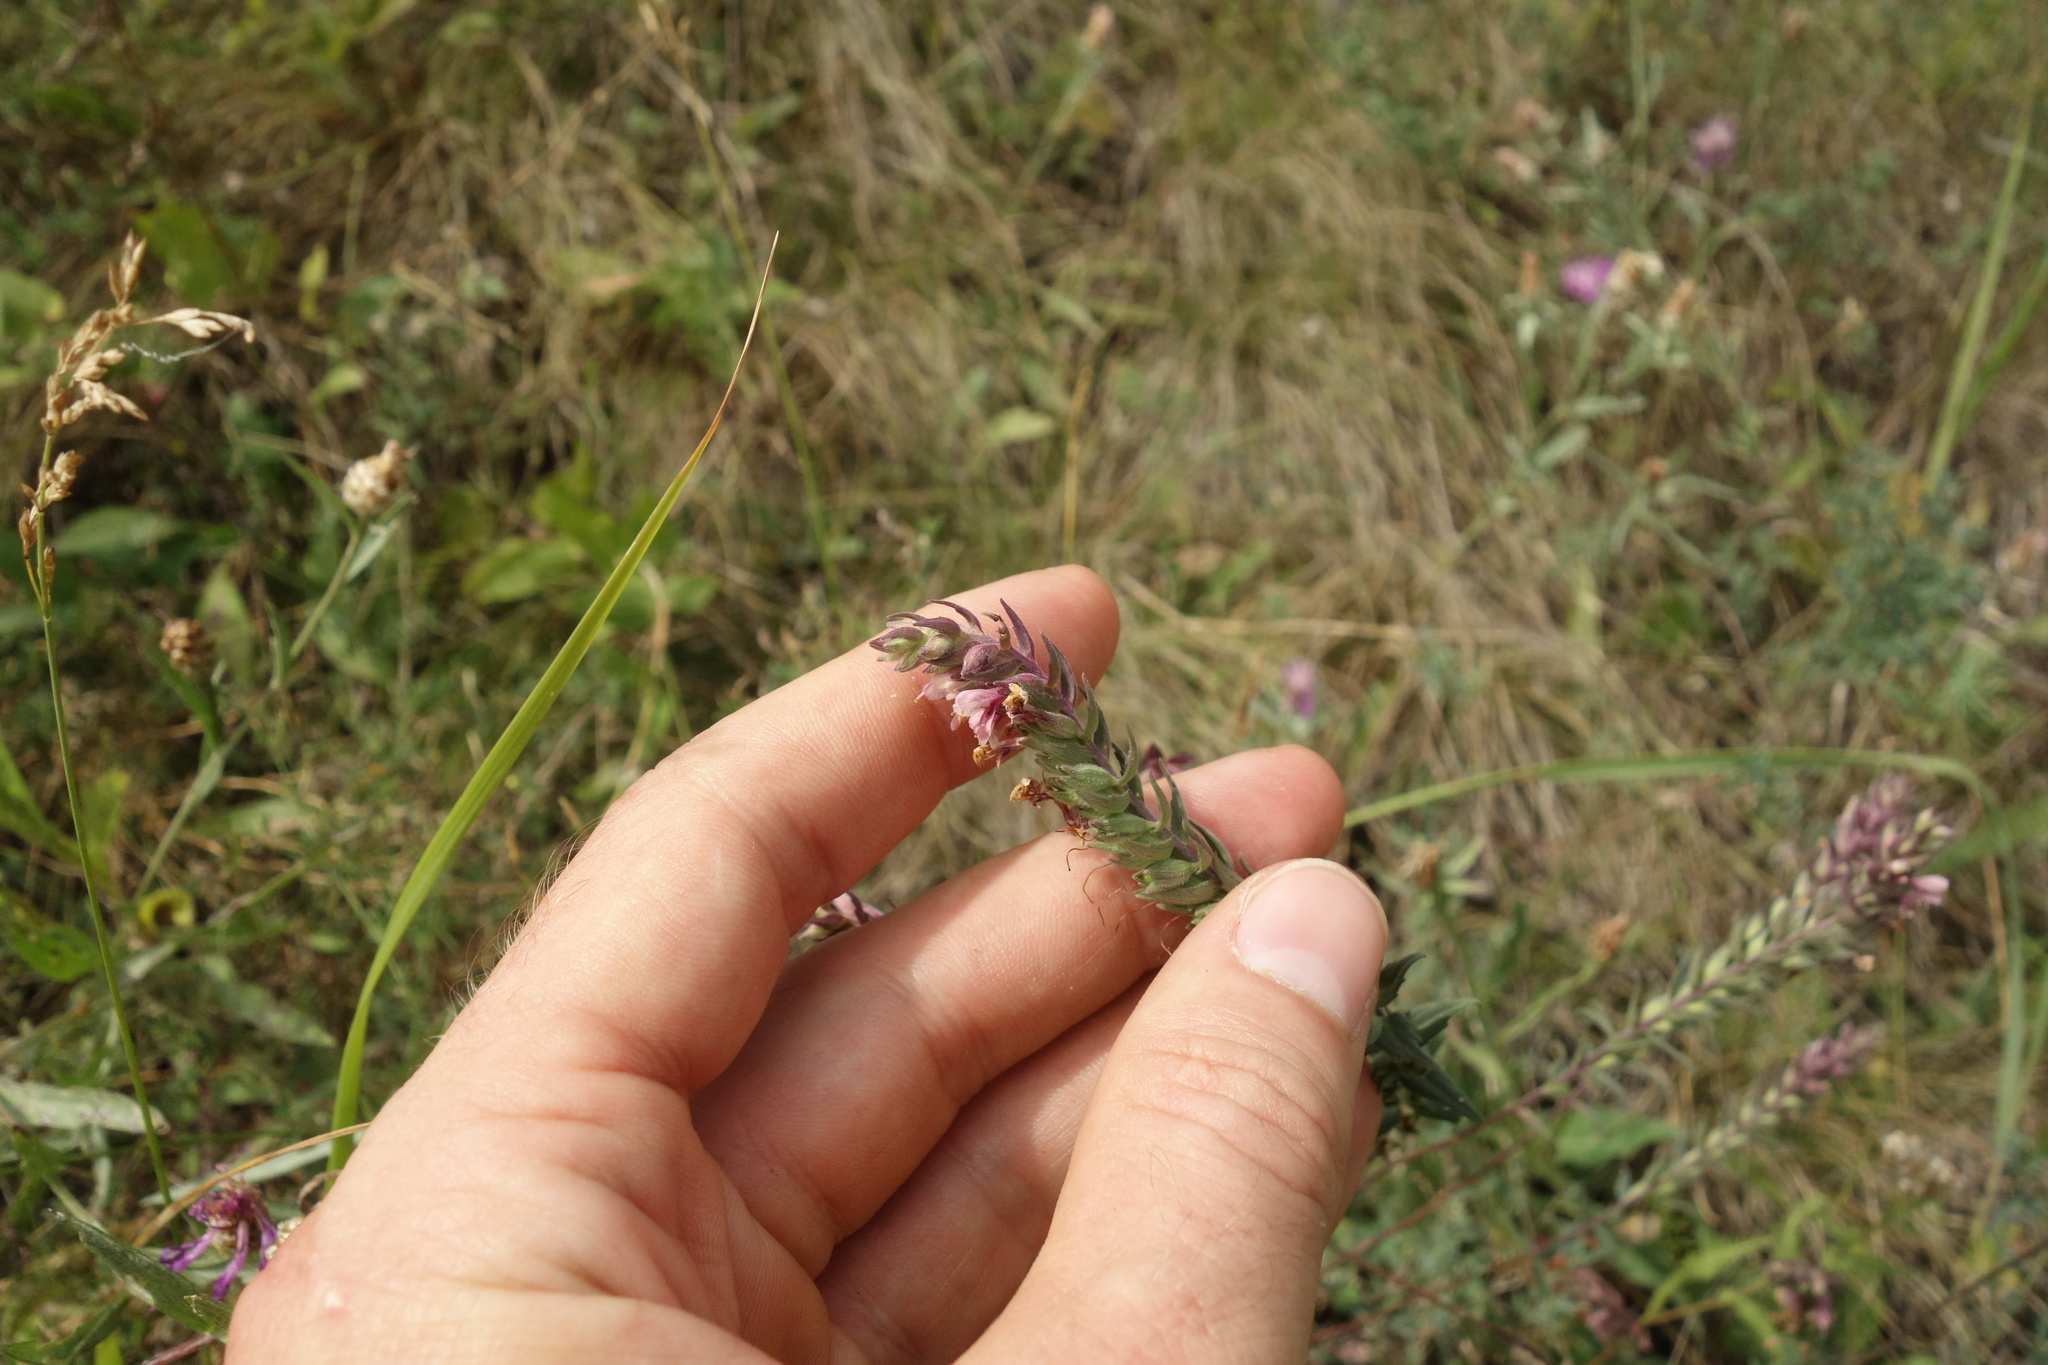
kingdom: Plantae
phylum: Tracheophyta
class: Magnoliopsida
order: Lamiales
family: Orobanchaceae
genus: Odontites
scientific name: Odontites vulgaris
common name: Broomrape
